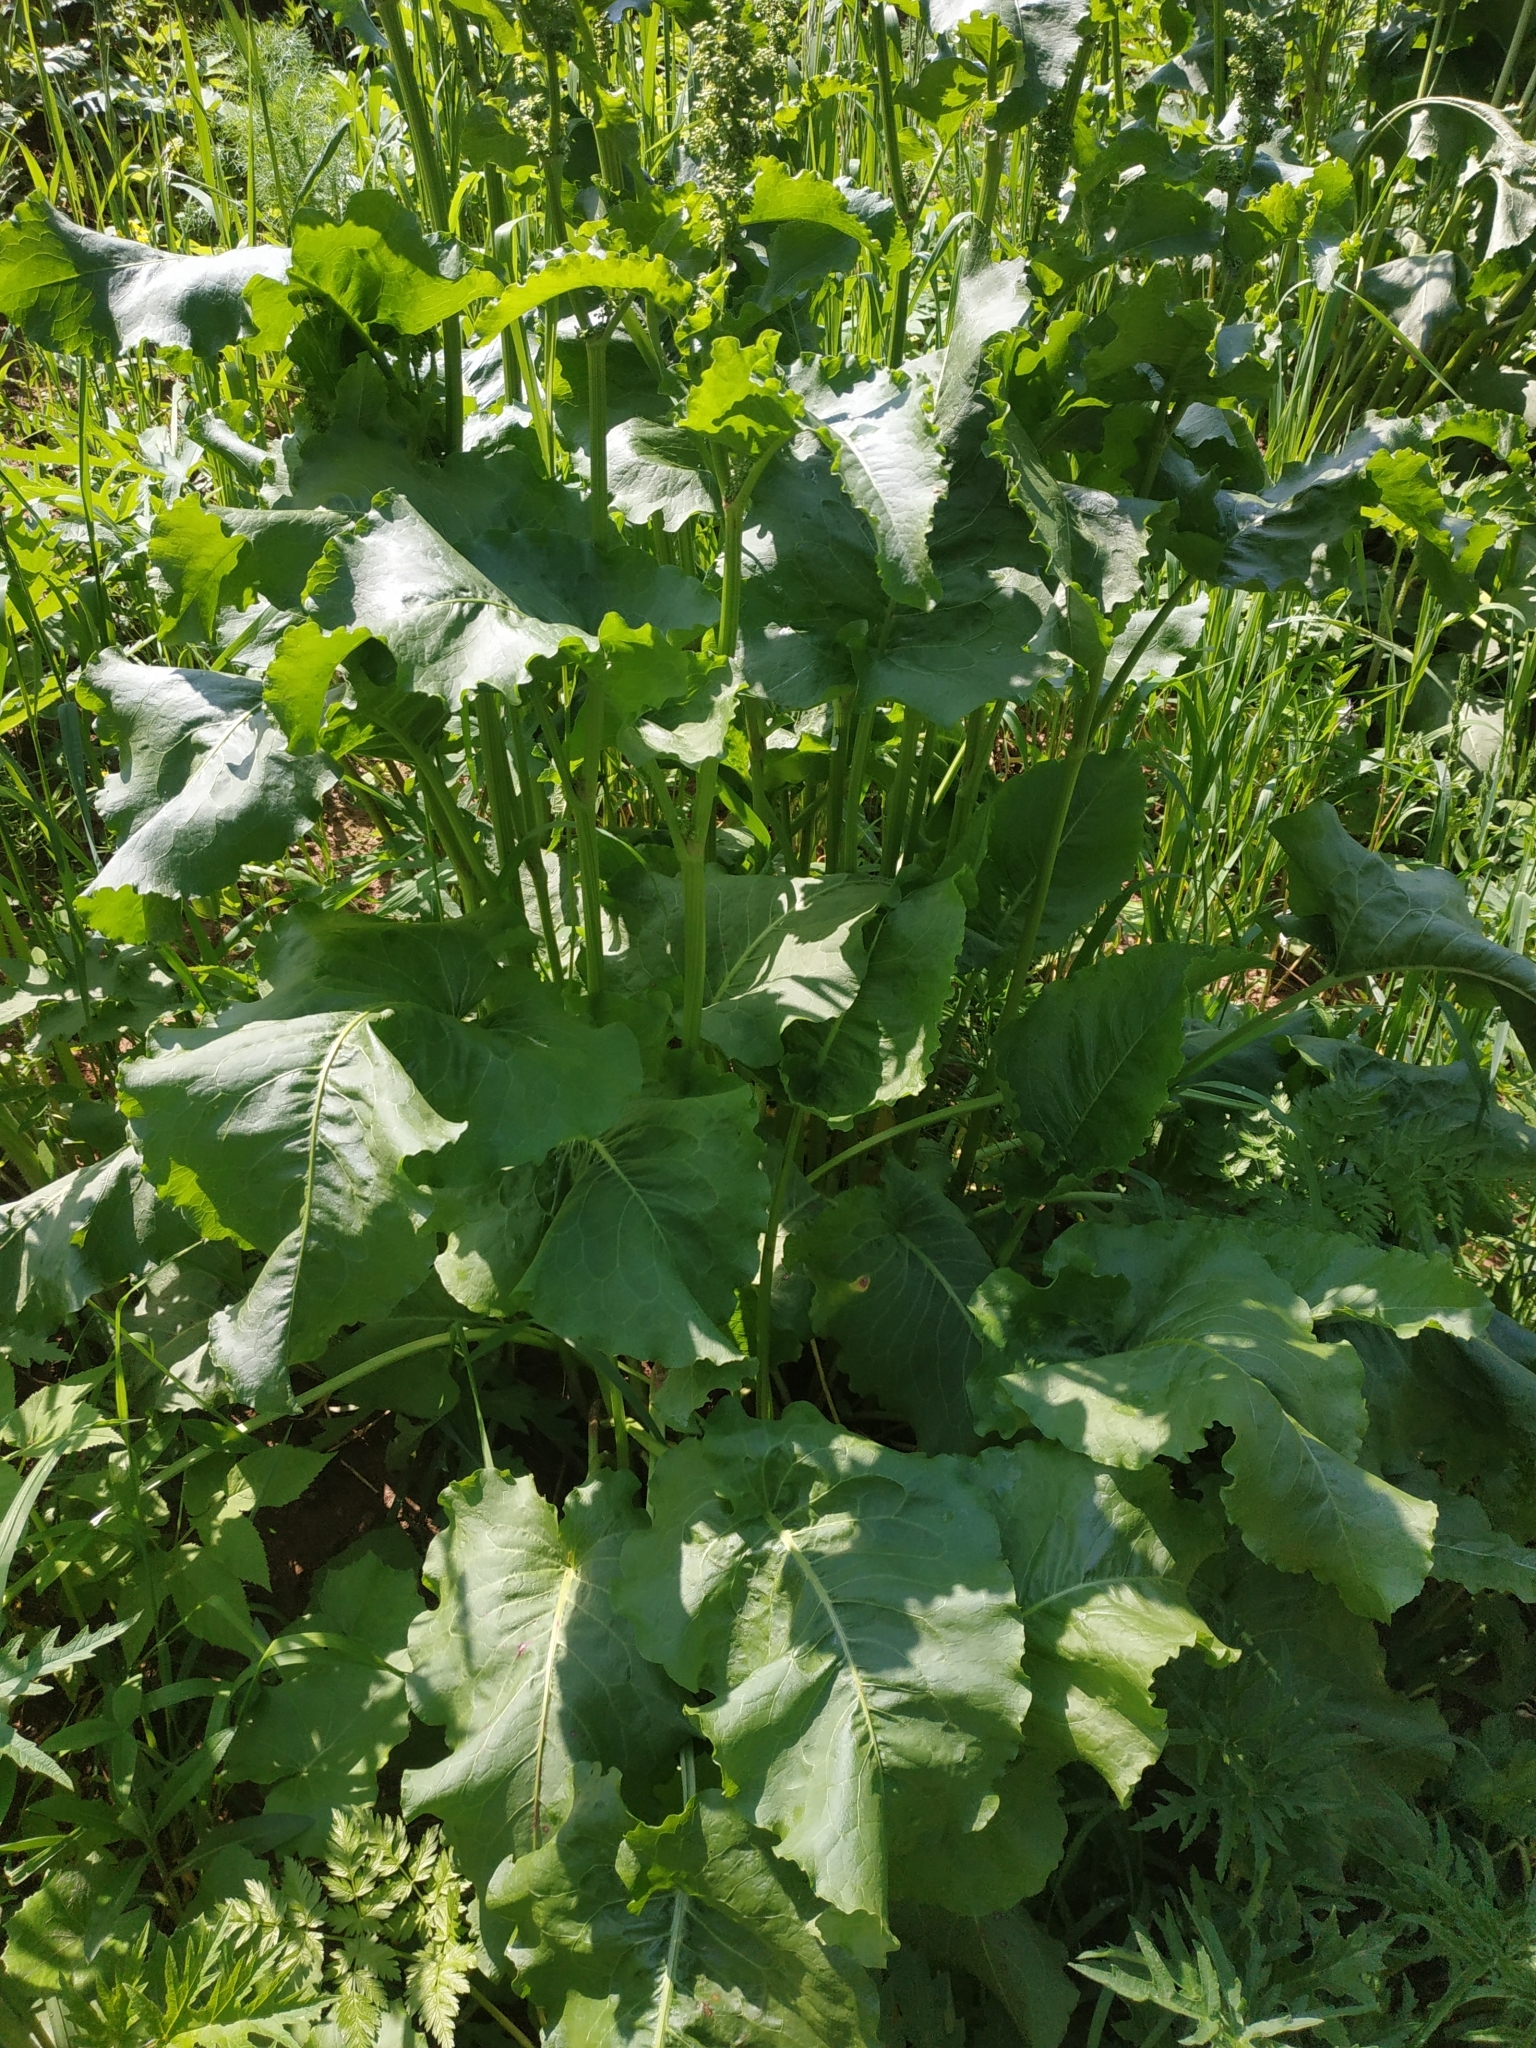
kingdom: Plantae
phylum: Tracheophyta
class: Magnoliopsida
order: Caryophyllales
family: Polygonaceae
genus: Rumex
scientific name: Rumex confertus
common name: Russian dock
